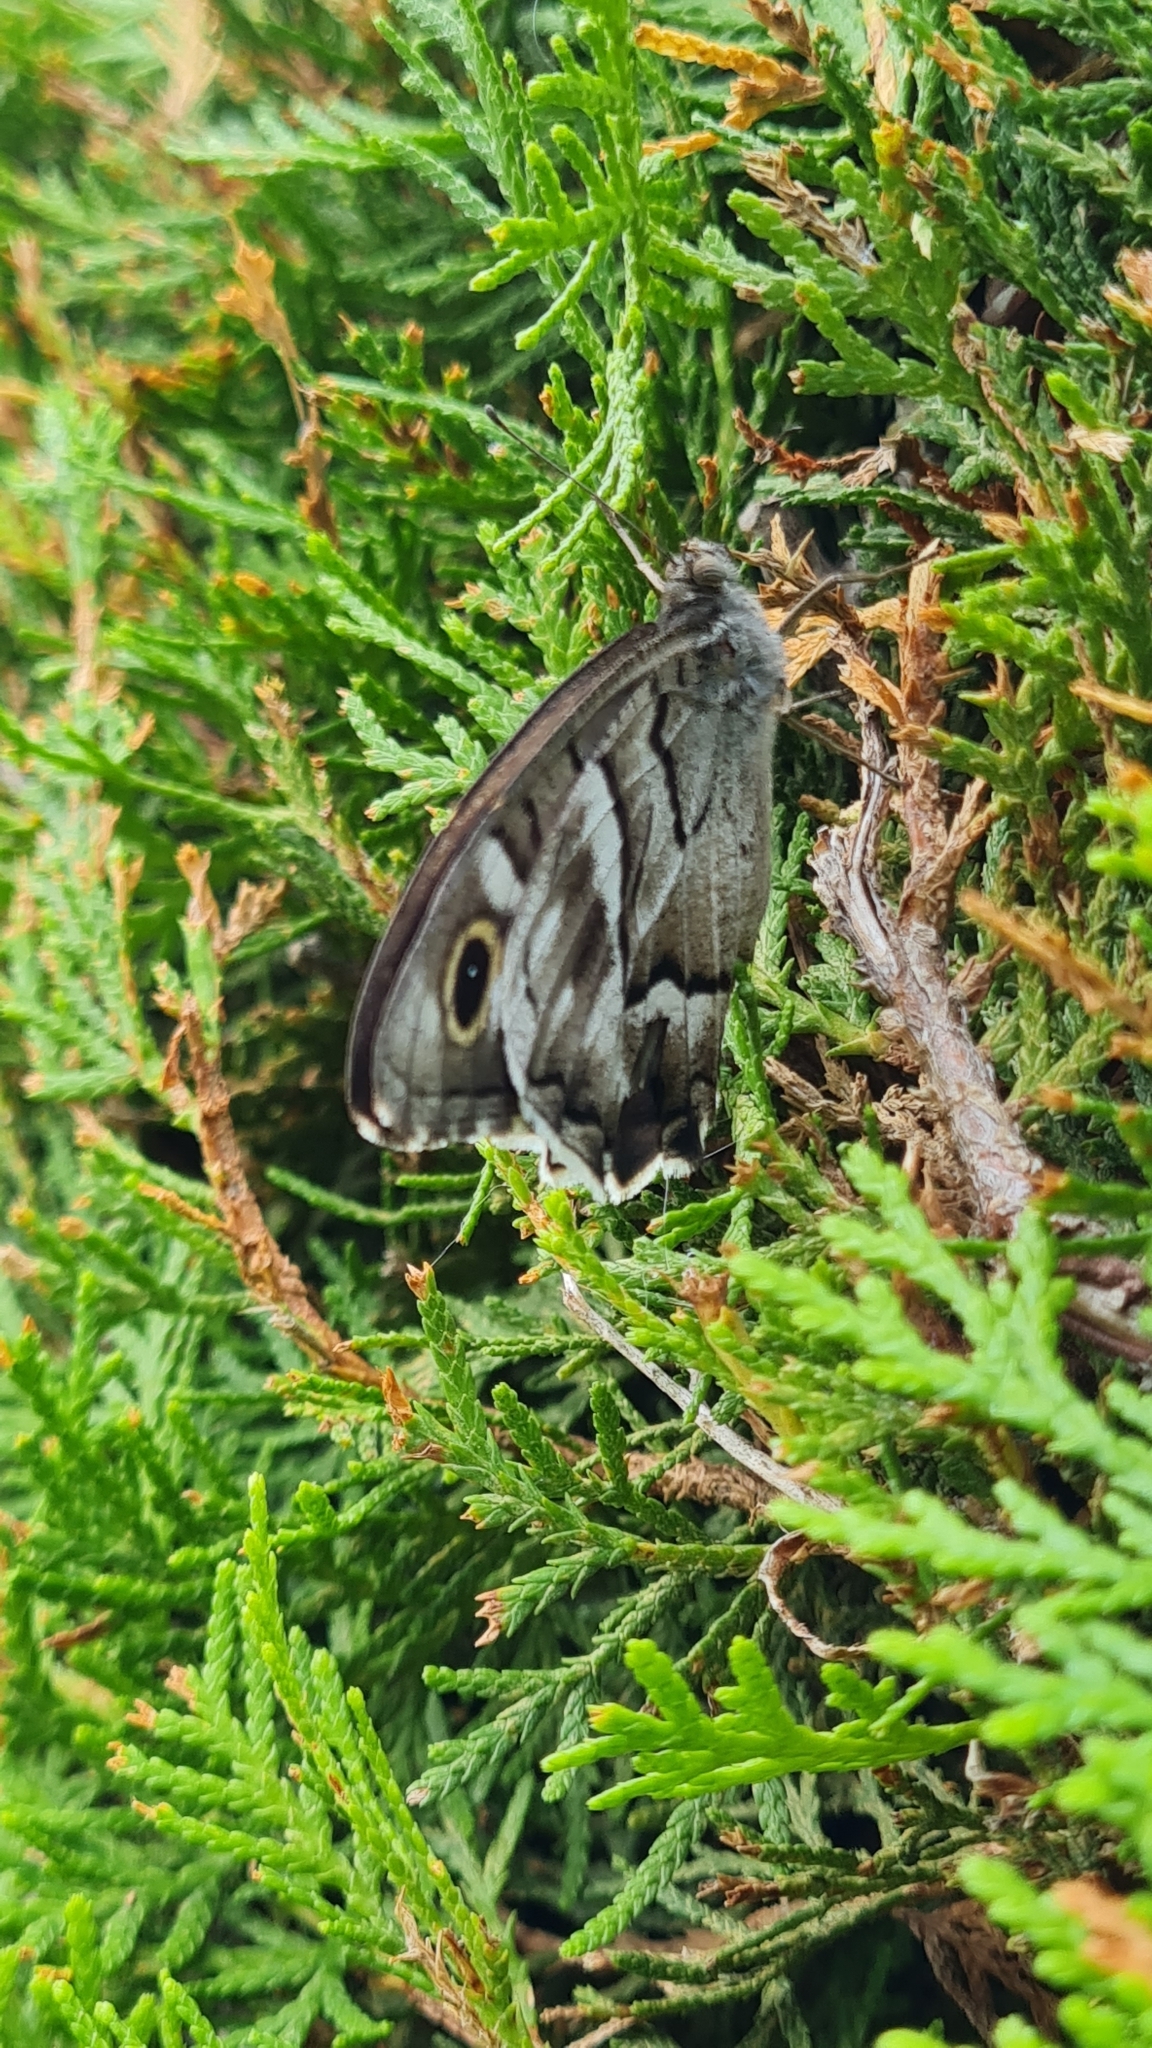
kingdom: Animalia
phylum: Arthropoda
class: Insecta
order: Lepidoptera
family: Nymphalidae
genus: Hipparchia
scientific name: Hipparchia fidia
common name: Striped grayling
